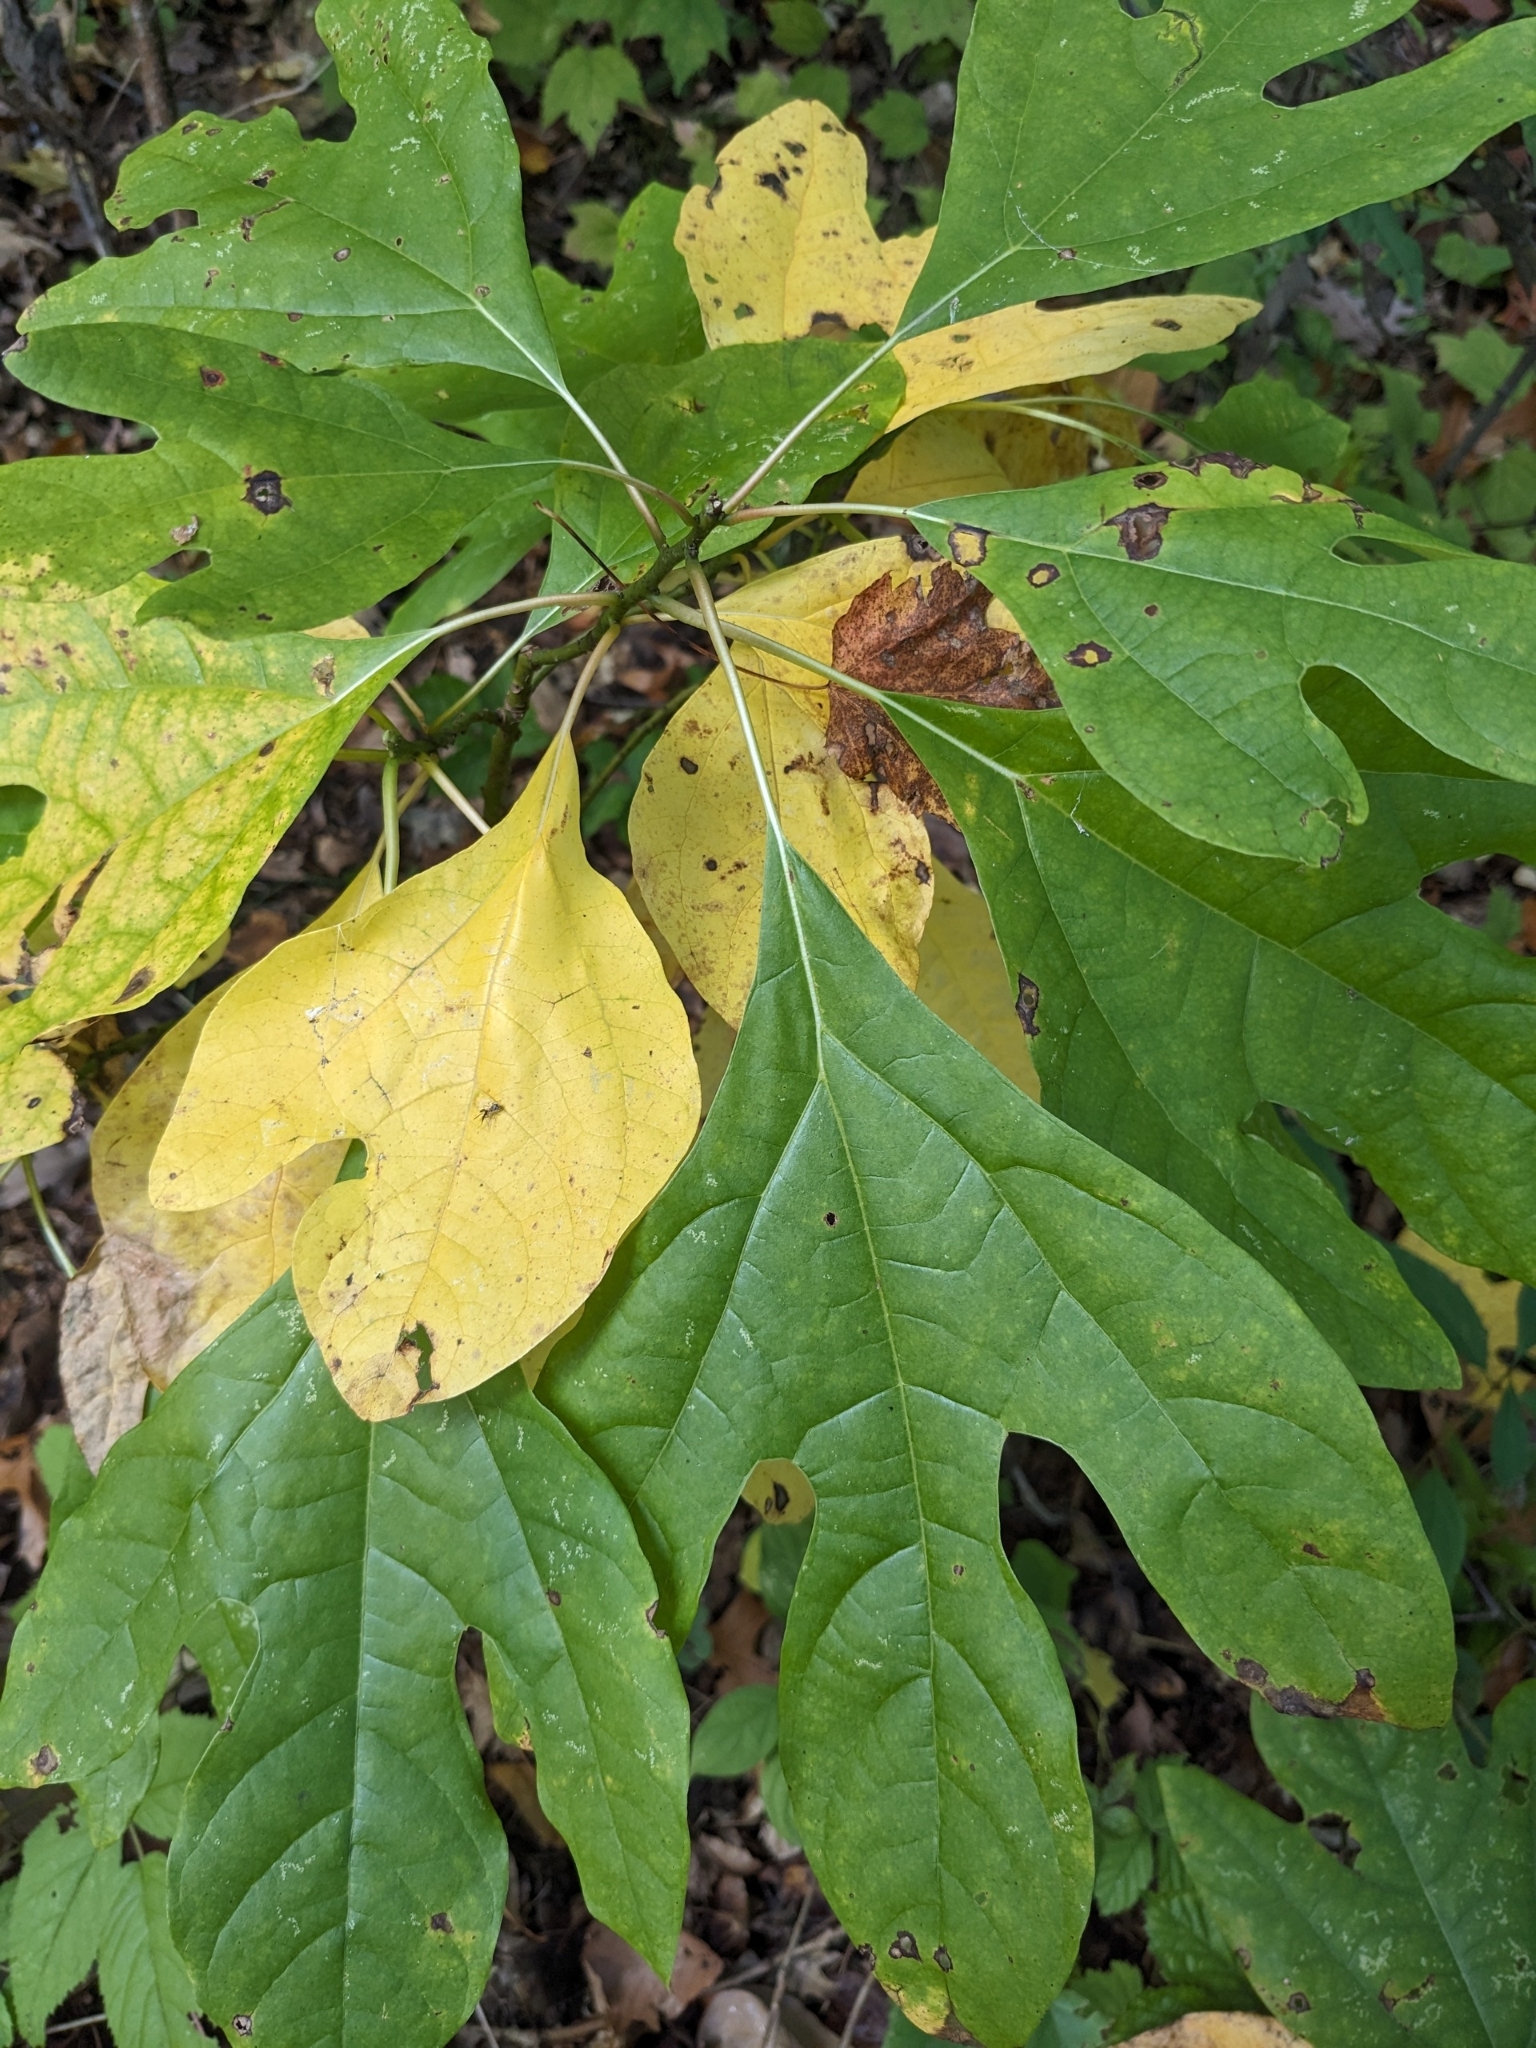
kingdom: Plantae
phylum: Tracheophyta
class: Magnoliopsida
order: Laurales
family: Lauraceae
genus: Sassafras
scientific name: Sassafras albidum
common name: Sassafras
